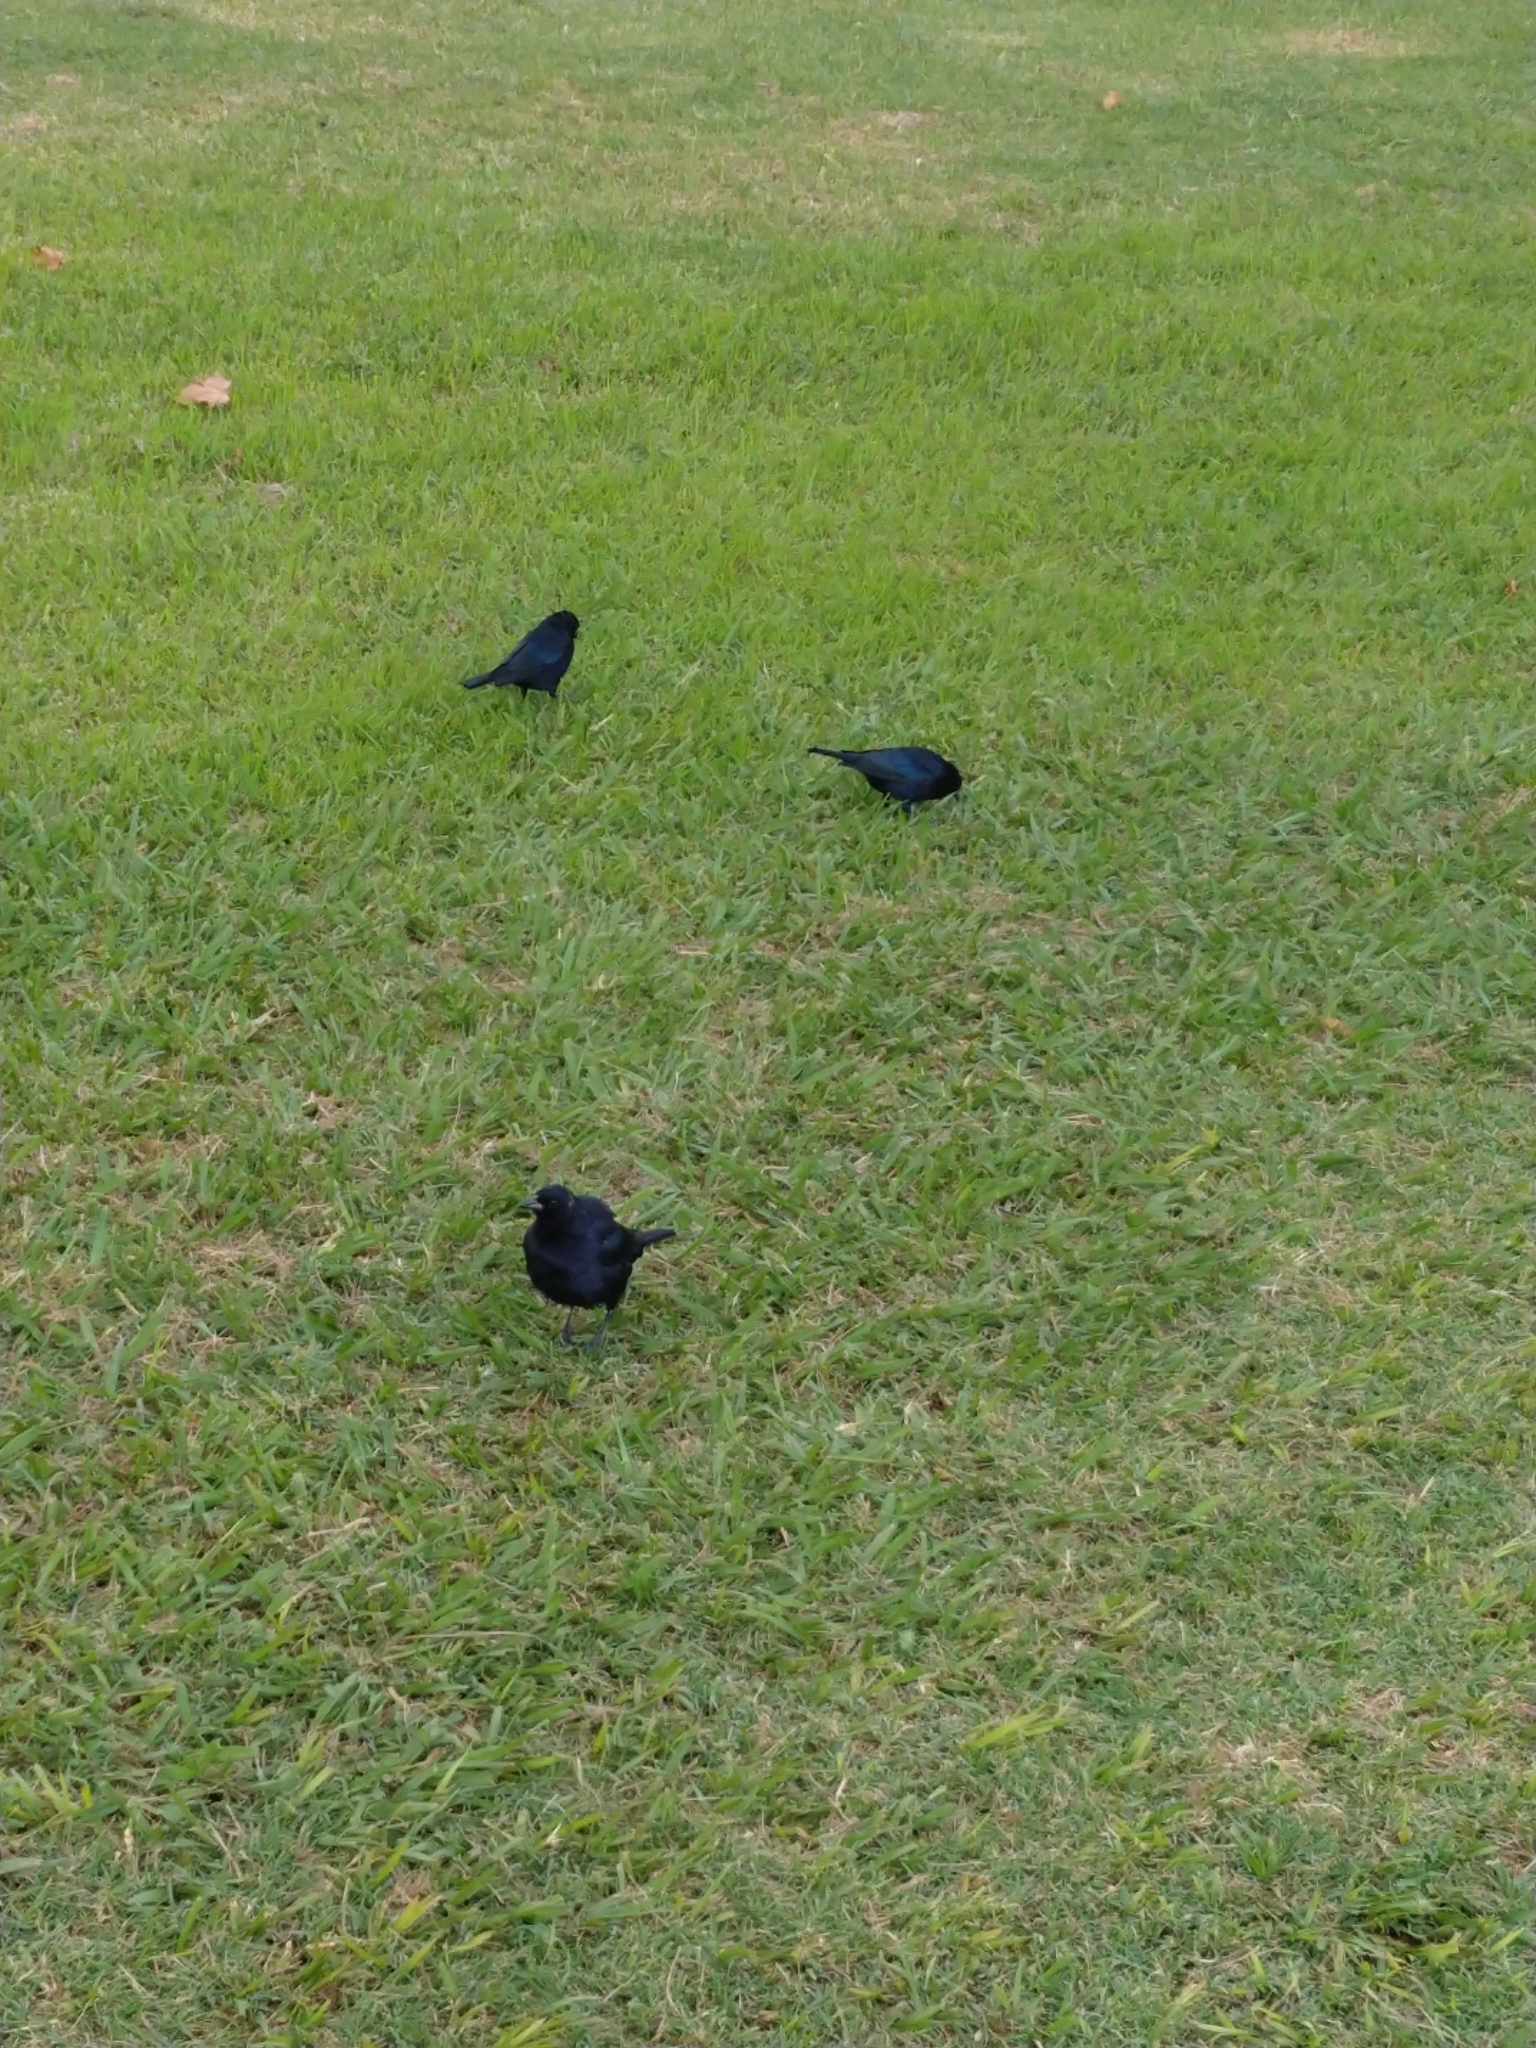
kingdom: Animalia
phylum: Chordata
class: Aves
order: Passeriformes
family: Icteridae
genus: Molothrus
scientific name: Molothrus bonariensis
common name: Shiny cowbird
